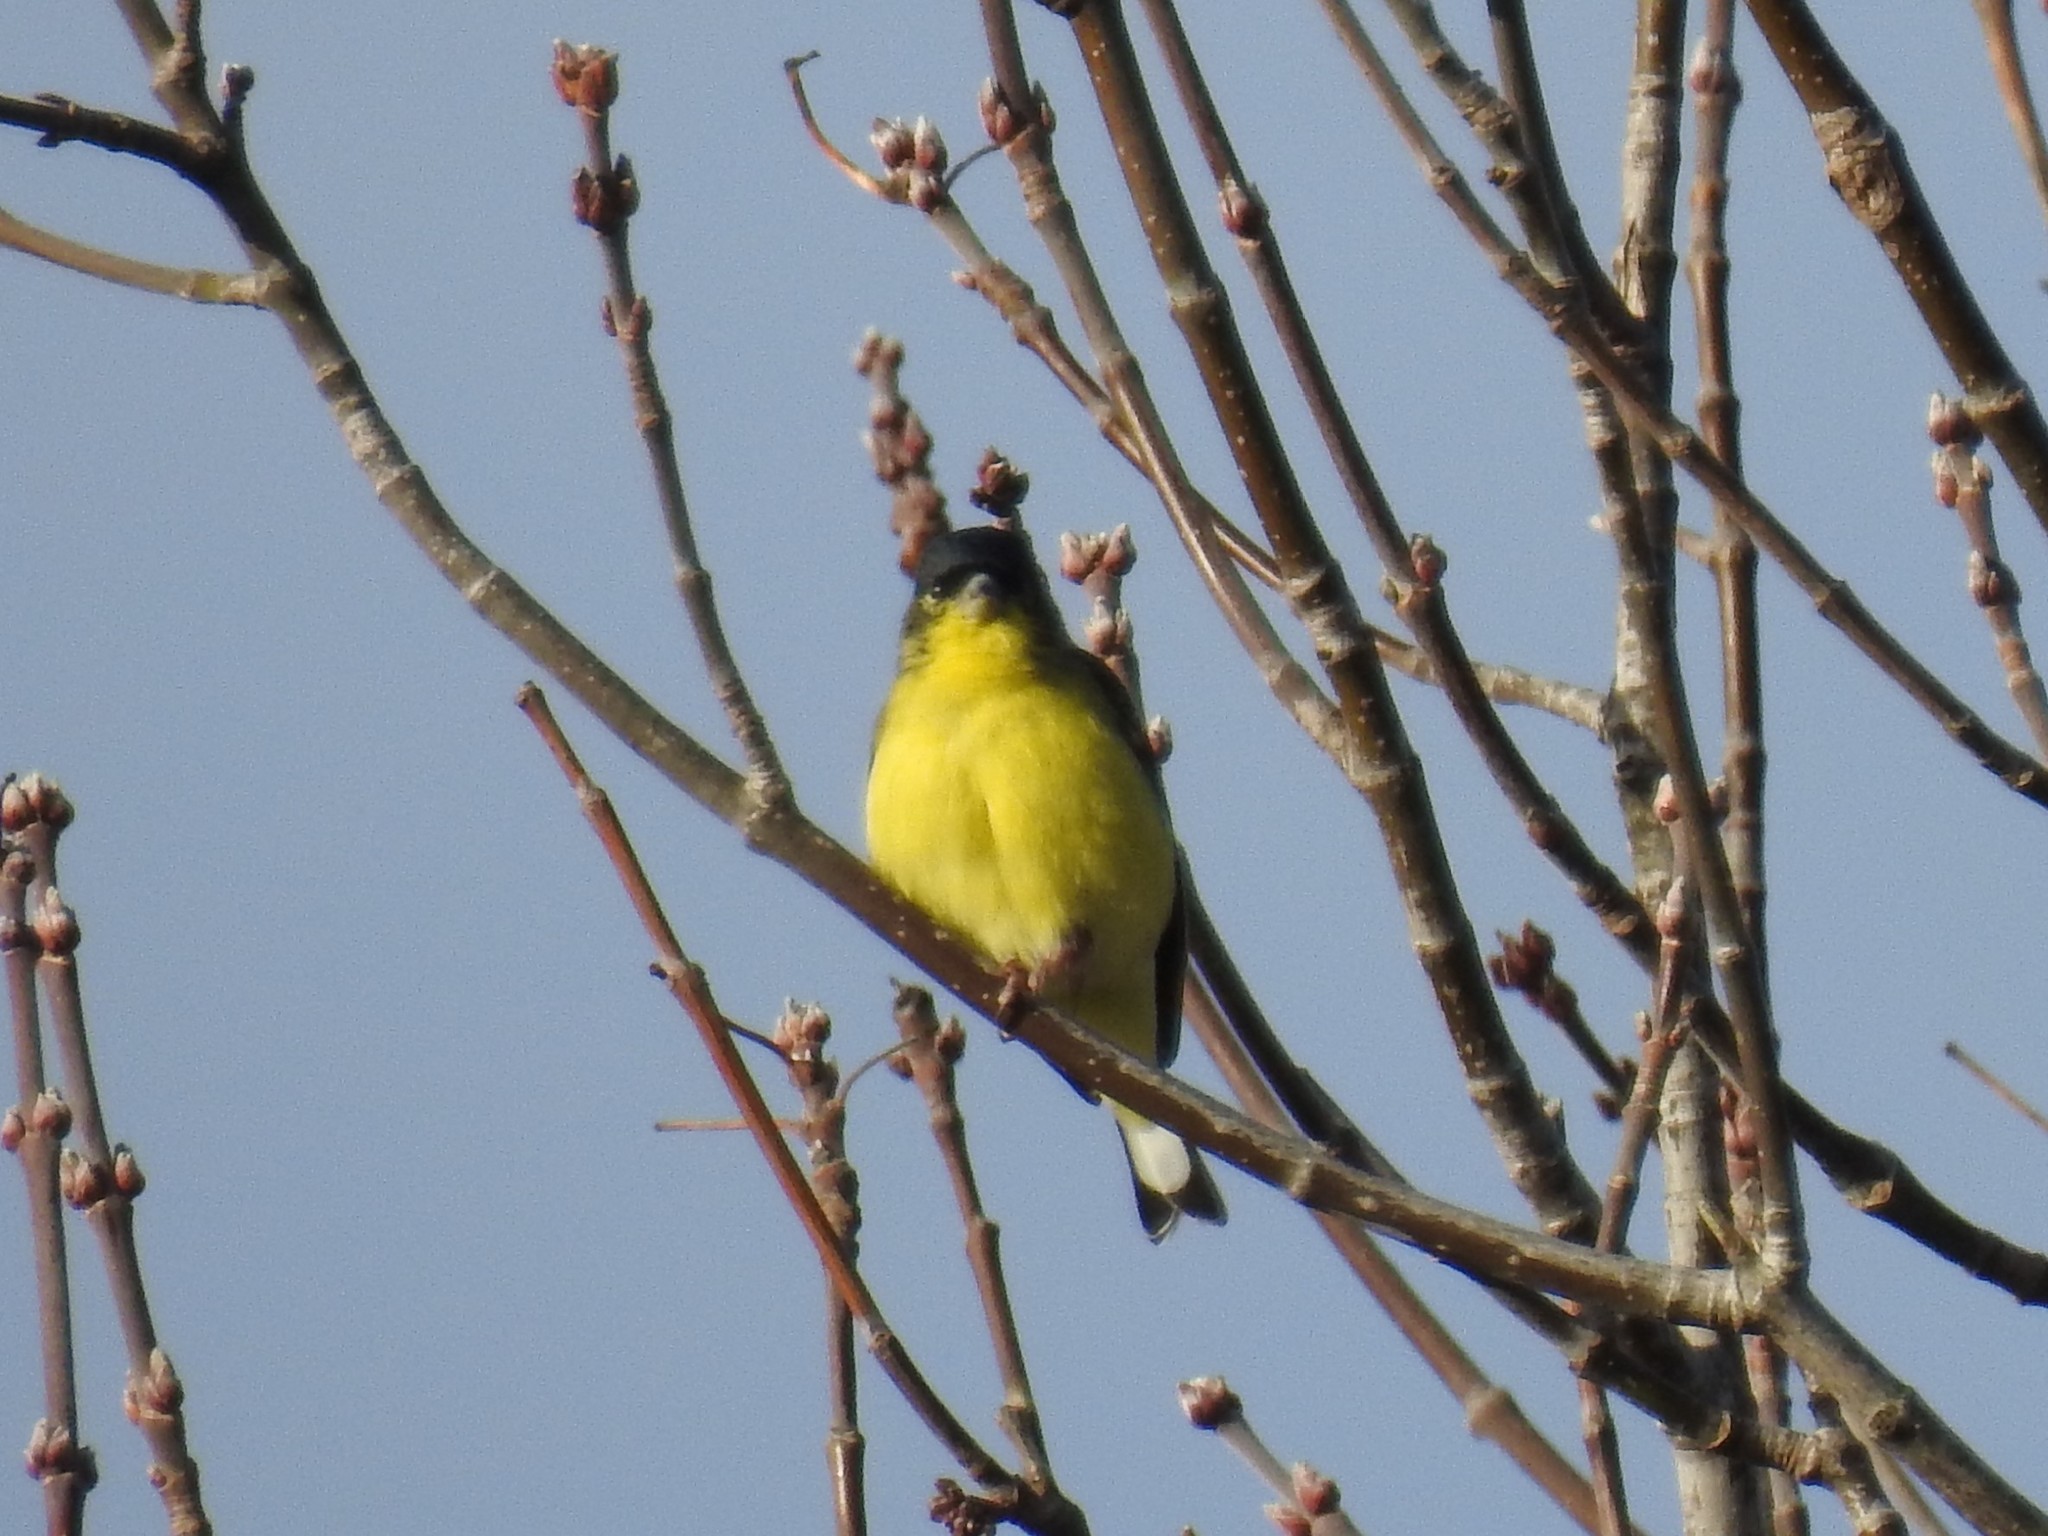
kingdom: Animalia
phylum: Chordata
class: Aves
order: Passeriformes
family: Fringillidae
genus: Spinus
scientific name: Spinus psaltria
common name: Lesser goldfinch
